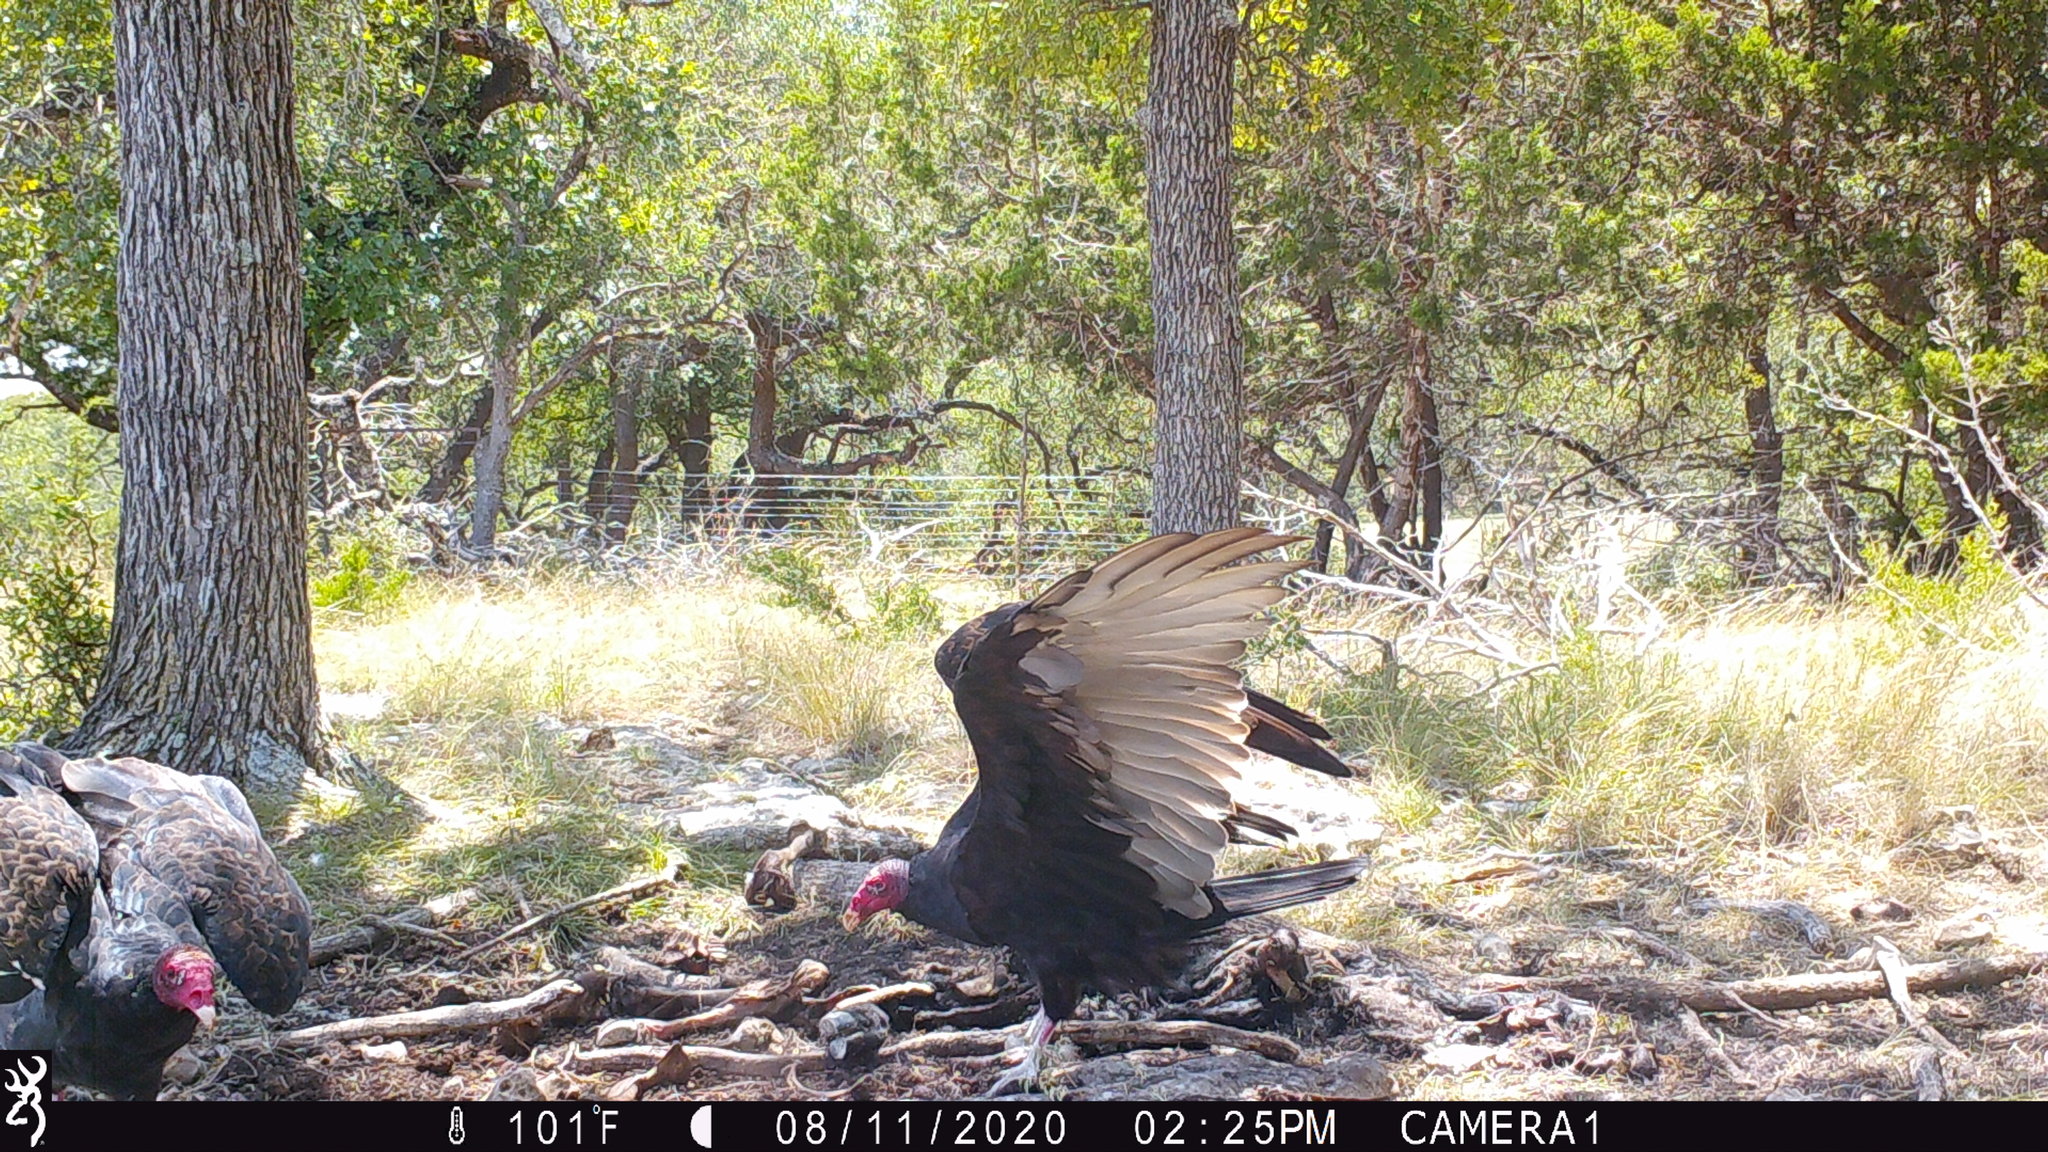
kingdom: Animalia
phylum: Chordata
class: Aves
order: Accipitriformes
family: Cathartidae
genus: Cathartes
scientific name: Cathartes aura
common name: Turkey vulture
